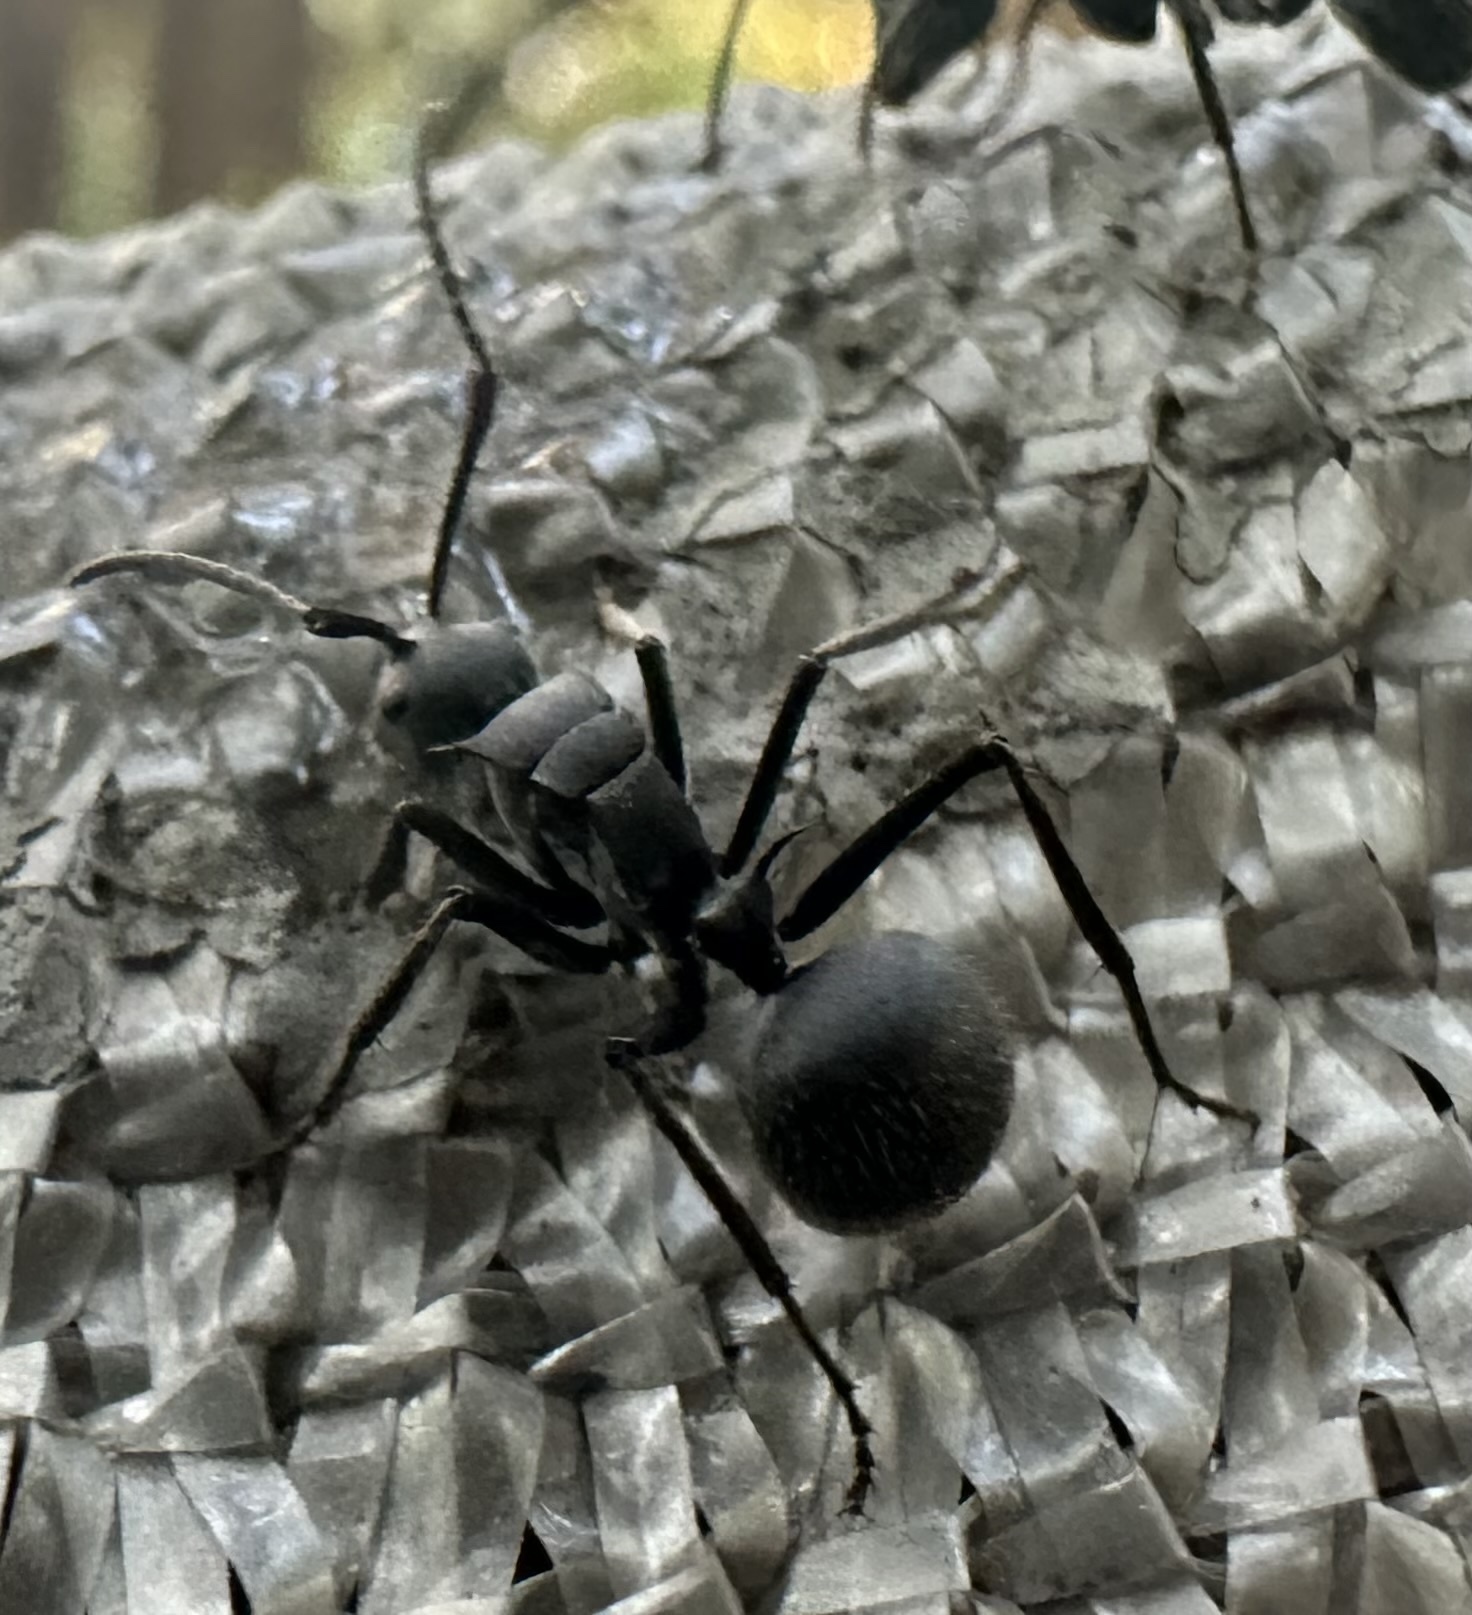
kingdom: Animalia
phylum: Arthropoda
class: Insecta
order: Hymenoptera
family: Formicidae
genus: Polyrhachis
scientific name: Polyrhachis schistacea
